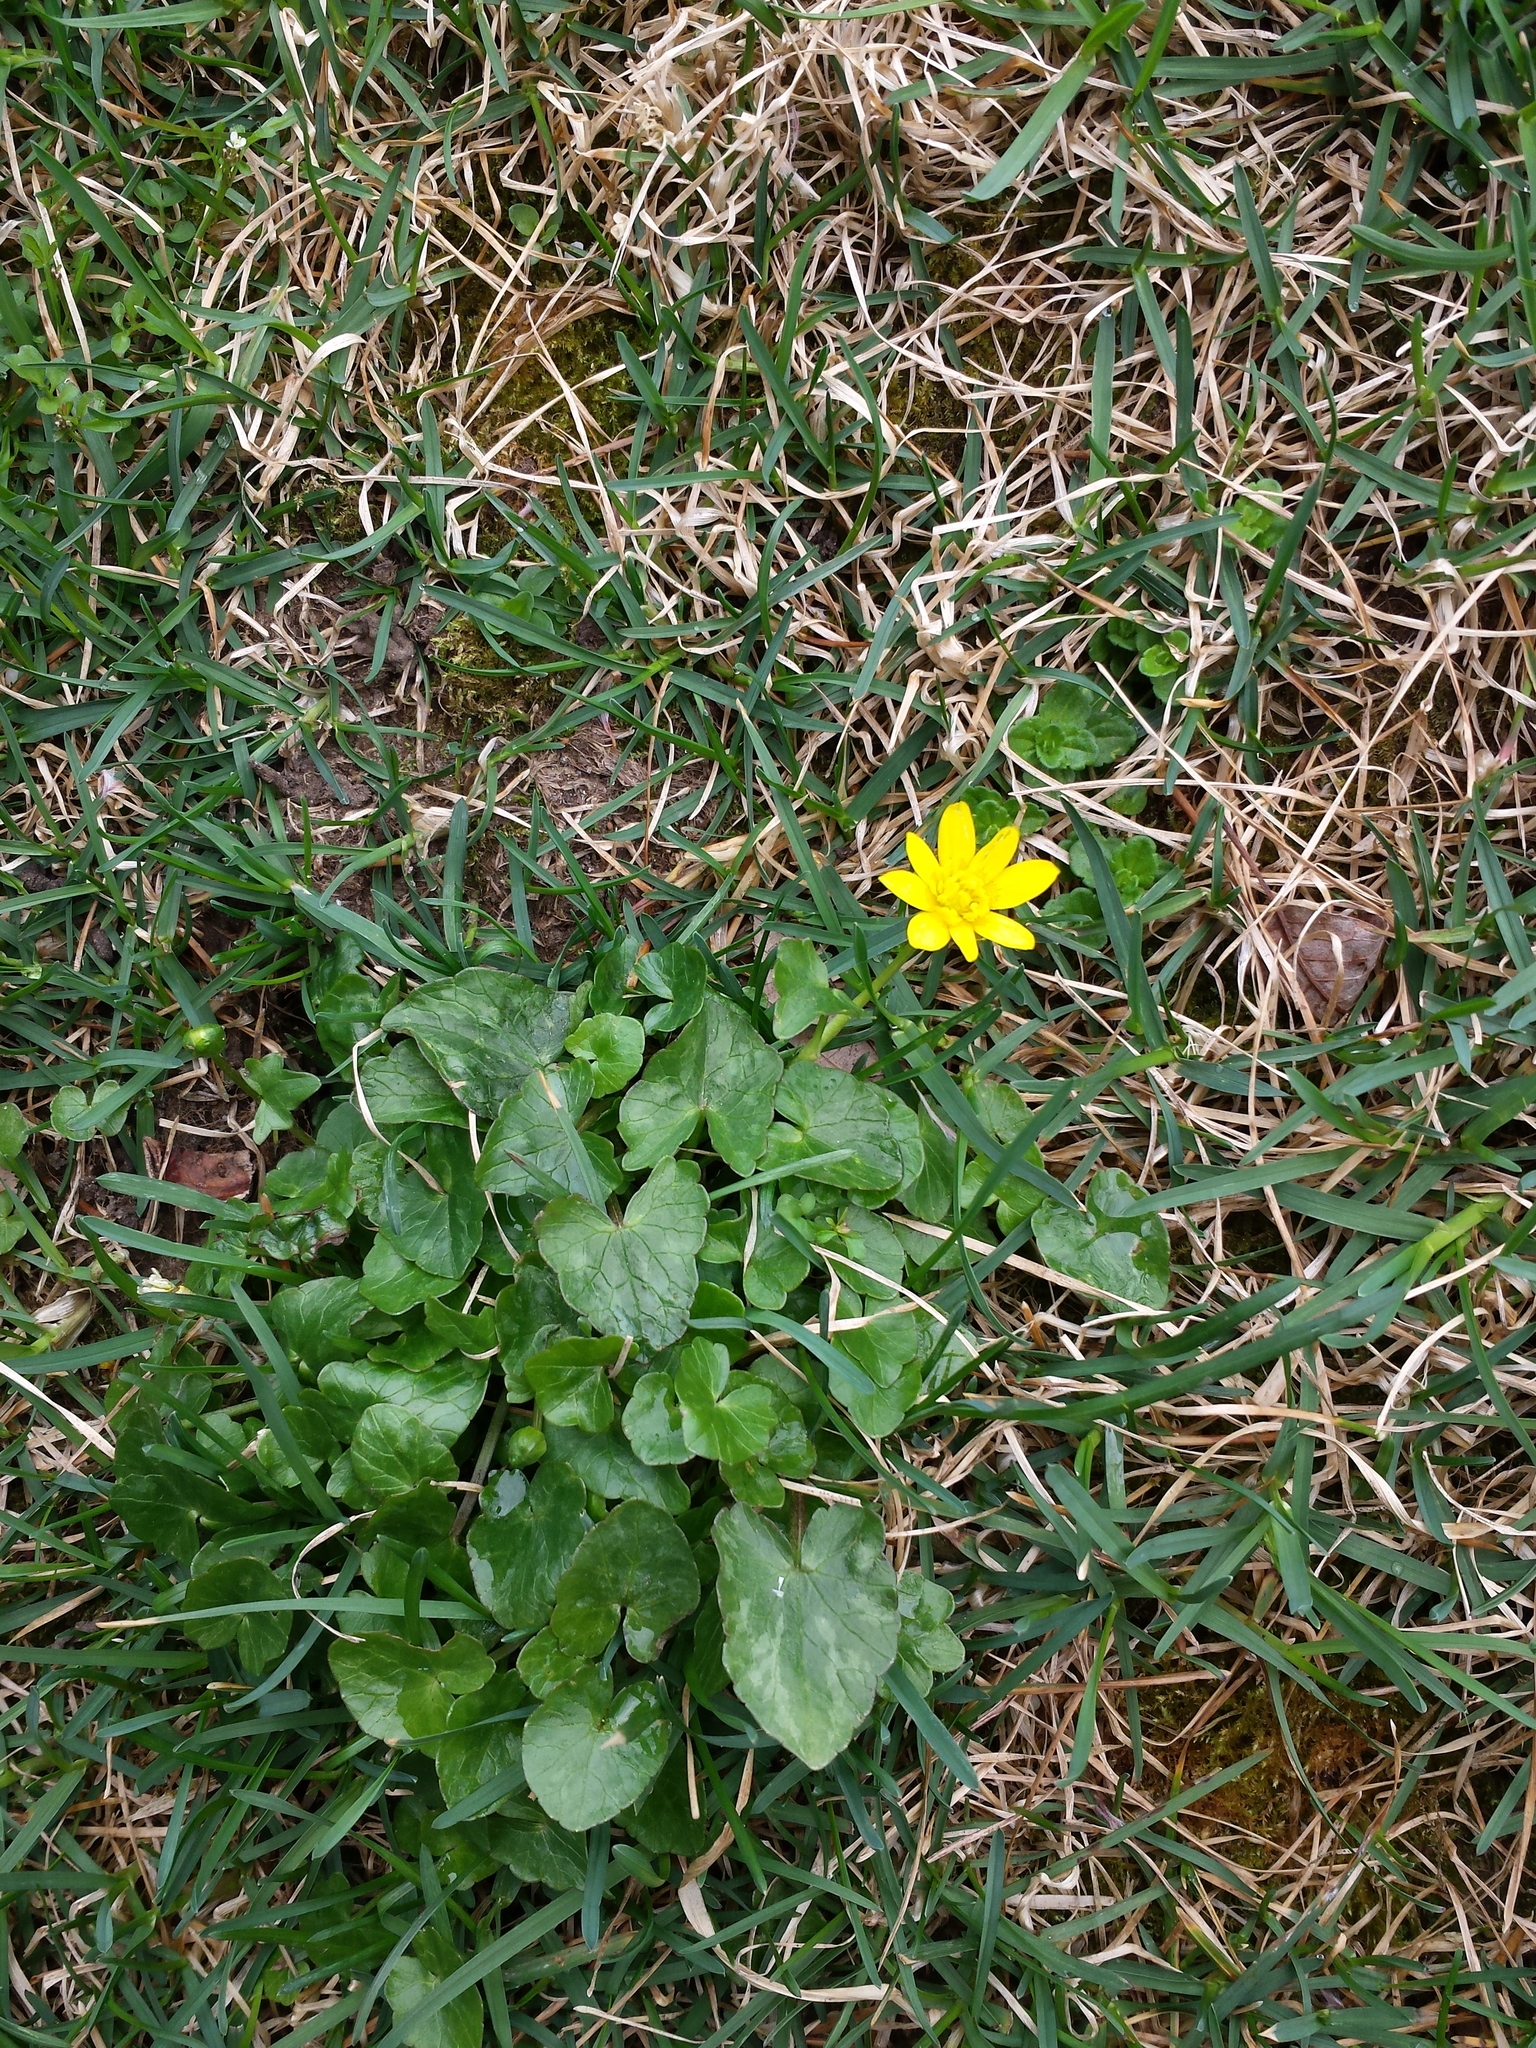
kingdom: Plantae
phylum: Tracheophyta
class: Magnoliopsida
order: Ranunculales
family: Ranunculaceae
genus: Ficaria
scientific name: Ficaria verna
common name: Lesser celandine
